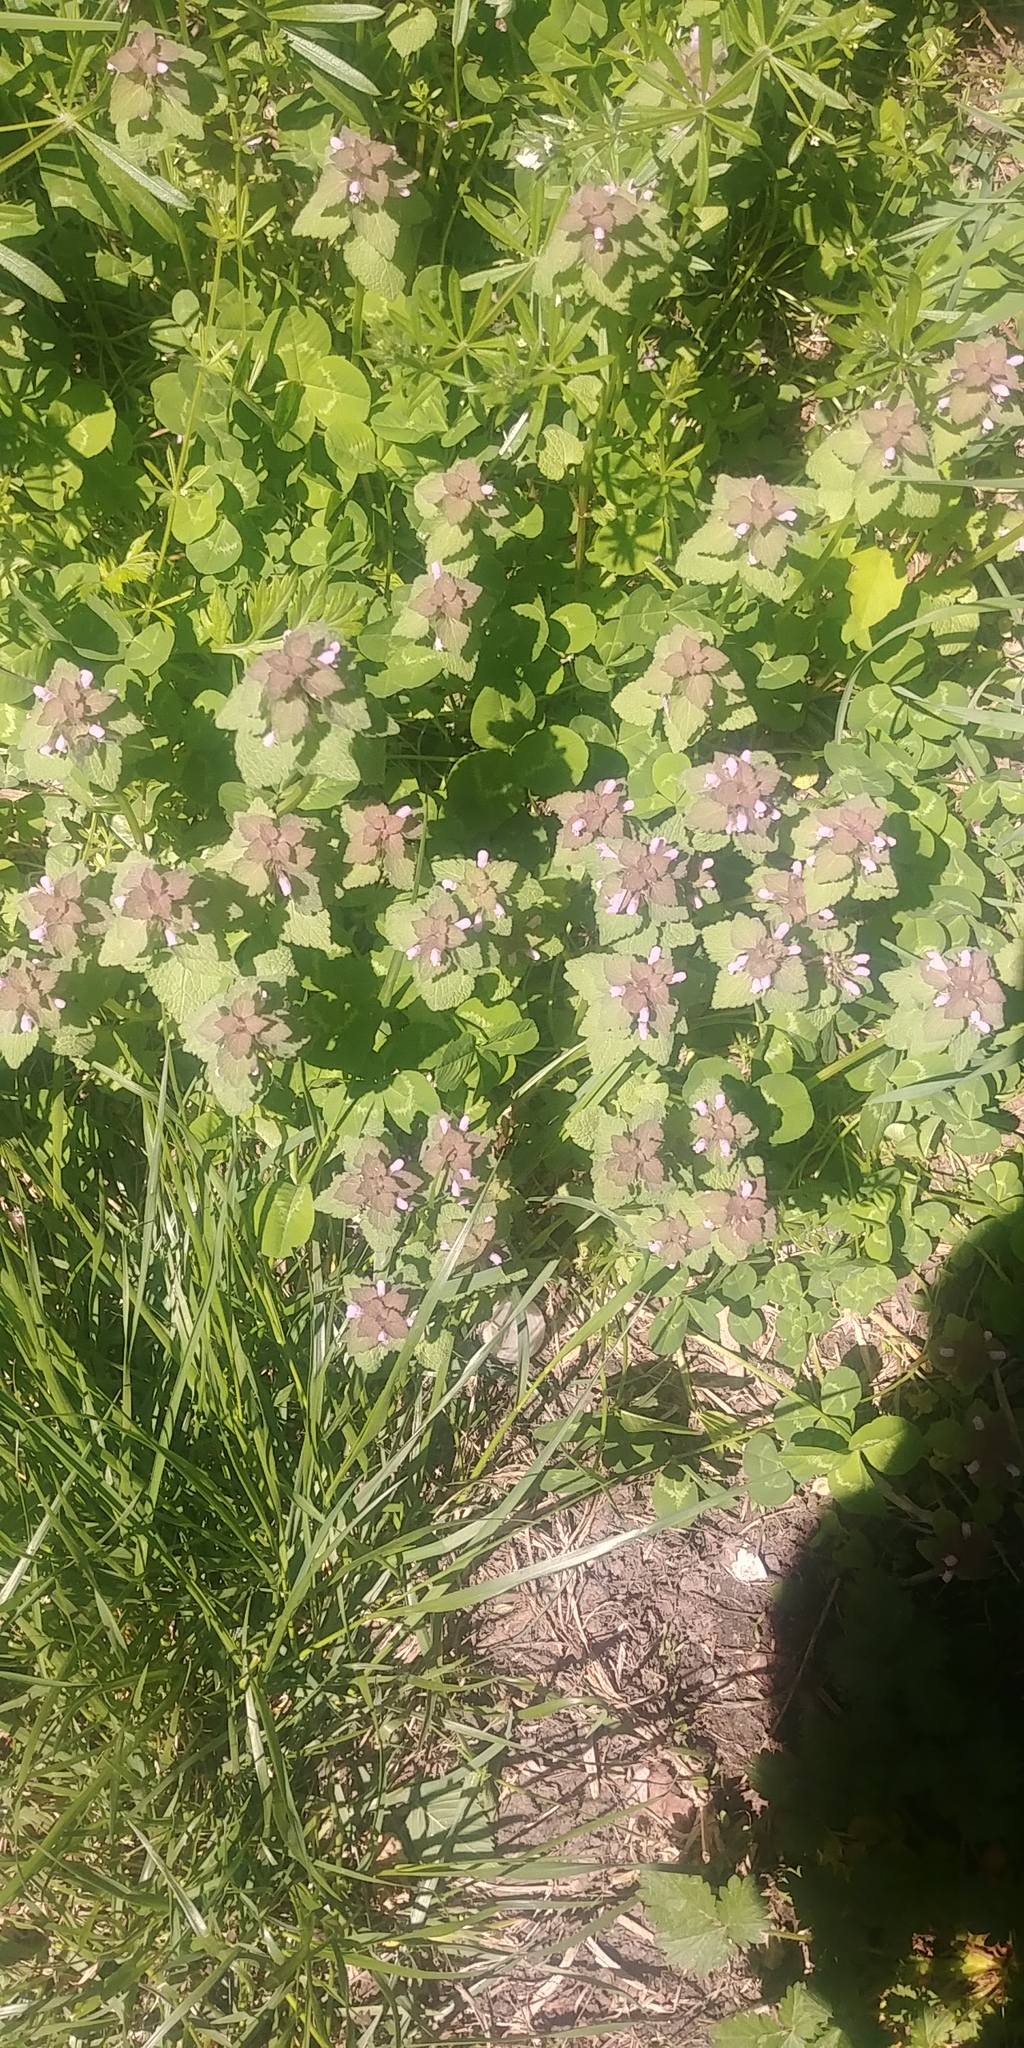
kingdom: Plantae
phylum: Tracheophyta
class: Magnoliopsida
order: Lamiales
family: Lamiaceae
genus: Lamium
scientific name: Lamium purpureum
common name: Red dead-nettle
